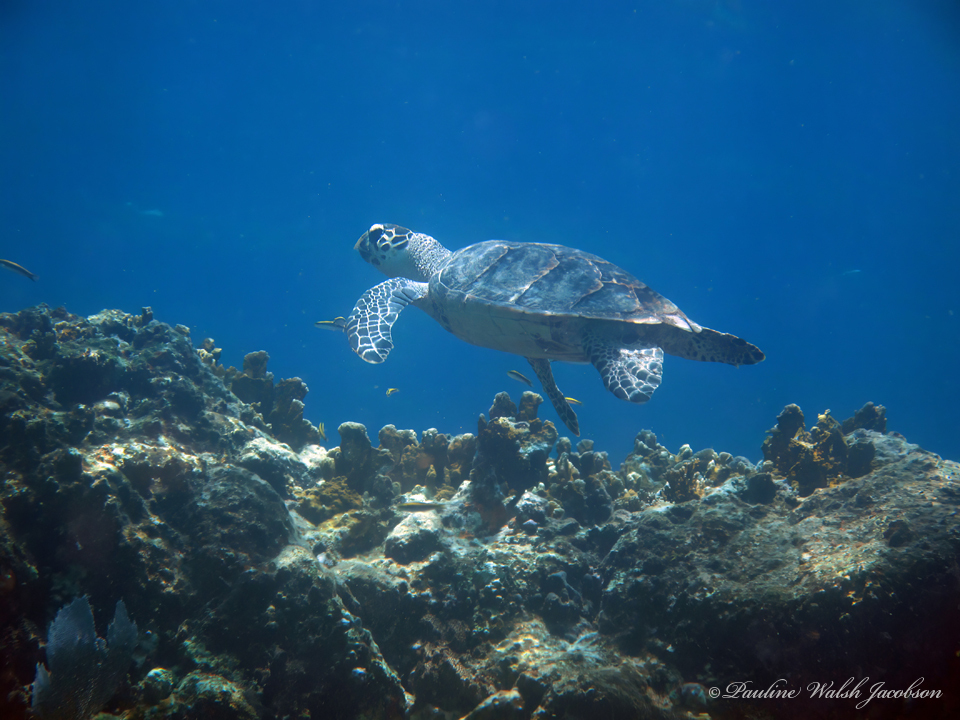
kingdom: Animalia
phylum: Chordata
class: Testudines
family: Cheloniidae
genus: Eretmochelys
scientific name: Eretmochelys imbricata
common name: Hawksbill turtle
